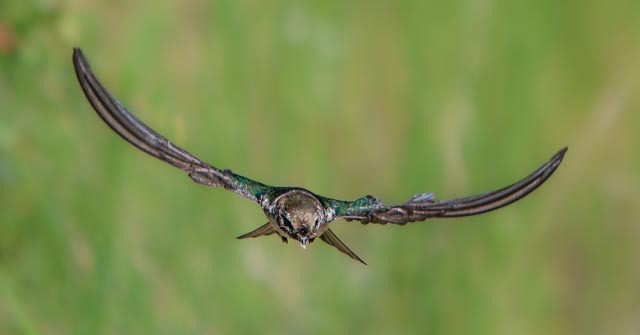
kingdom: Animalia
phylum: Chordata
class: Aves
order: Passeriformes
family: Hirundinidae
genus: Tachycineta
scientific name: Tachycineta thalassina
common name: Violet-green swallow
